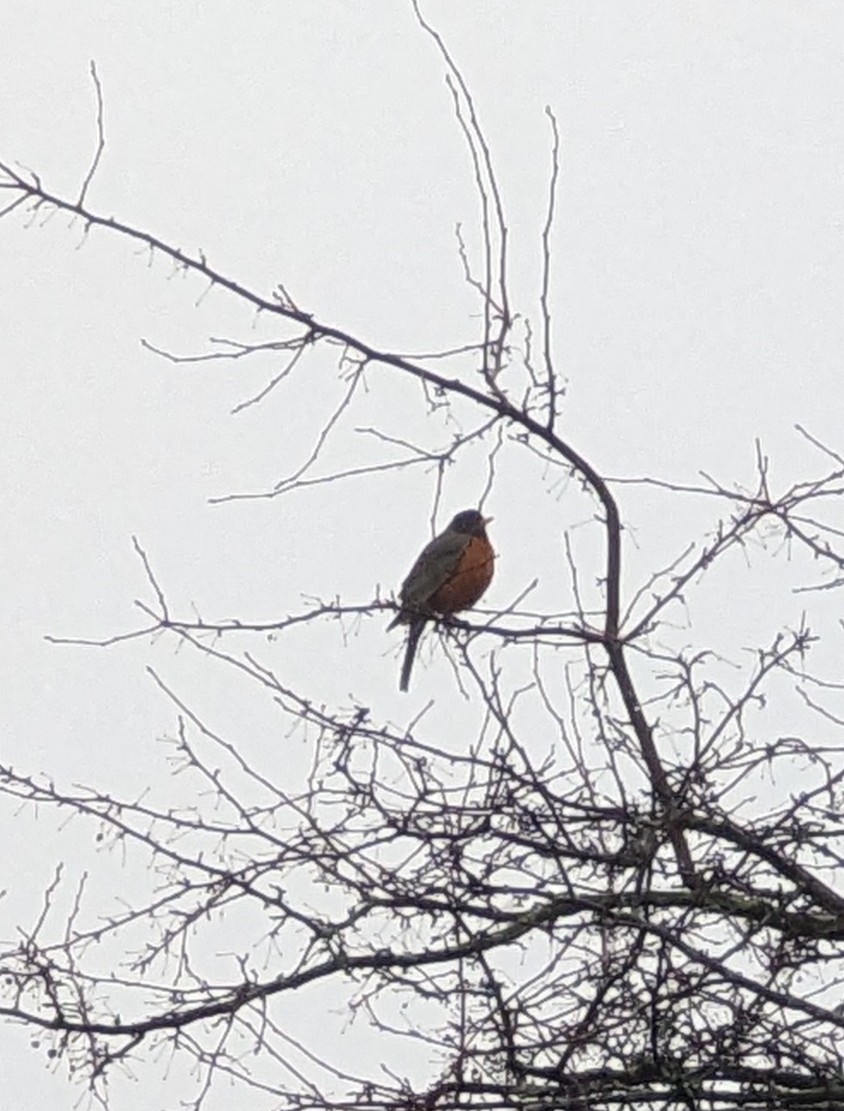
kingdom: Animalia
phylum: Chordata
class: Aves
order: Passeriformes
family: Turdidae
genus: Turdus
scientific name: Turdus migratorius
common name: American robin
